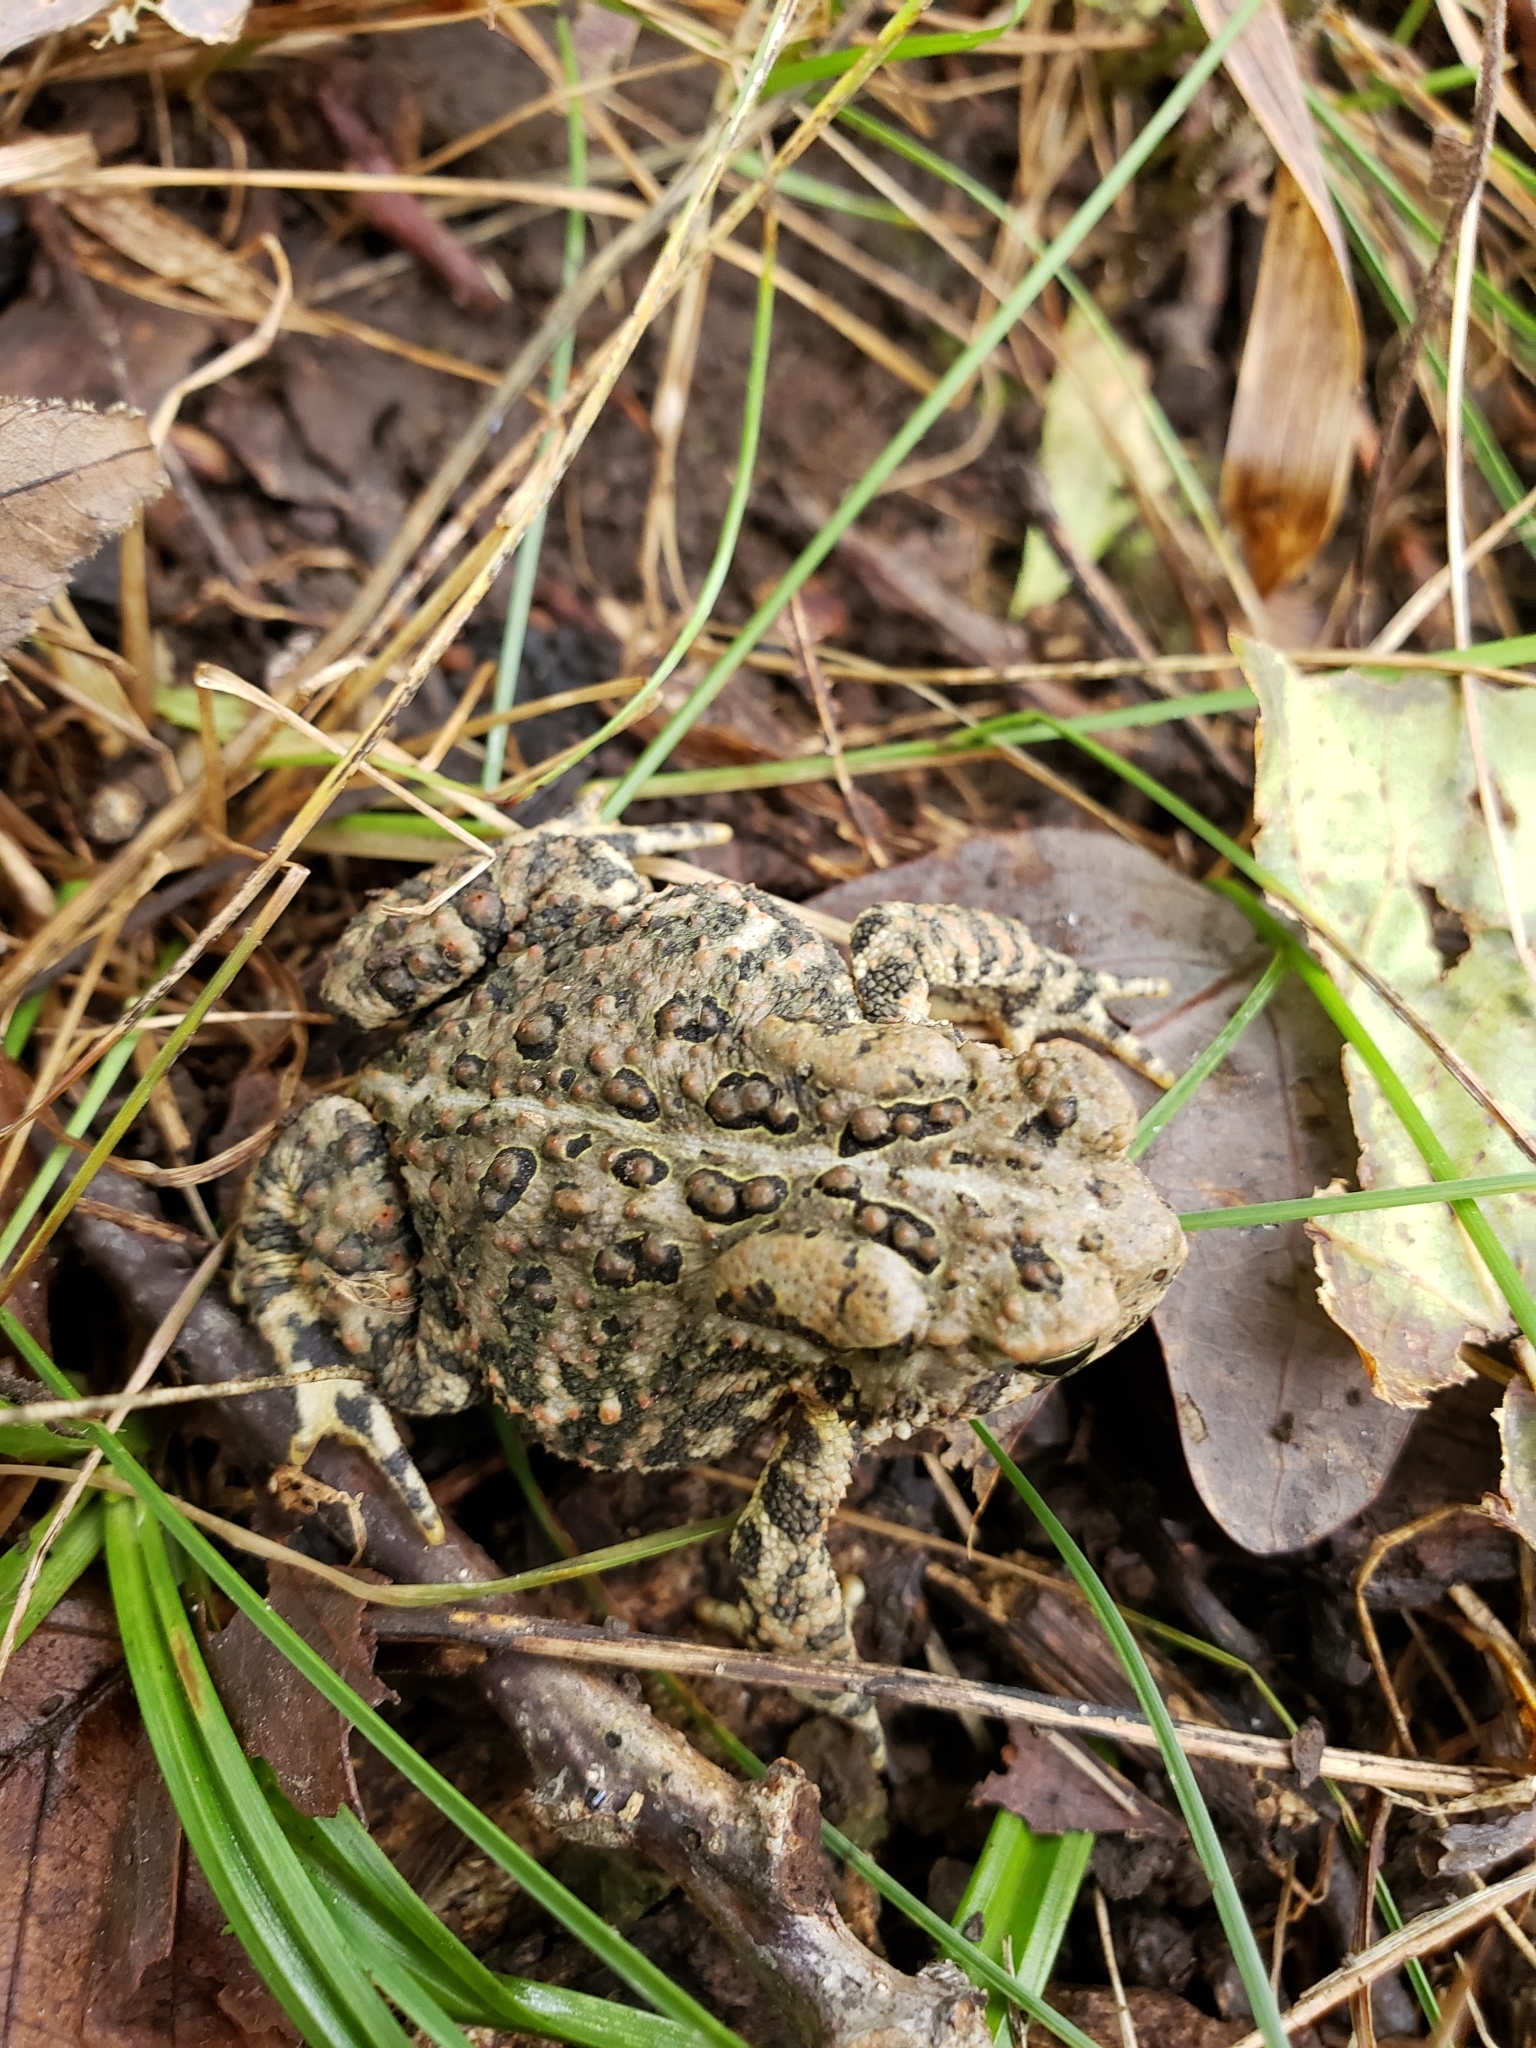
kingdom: Animalia
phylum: Chordata
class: Amphibia
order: Anura
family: Bufonidae
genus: Anaxyrus
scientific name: Anaxyrus americanus
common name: American toad
